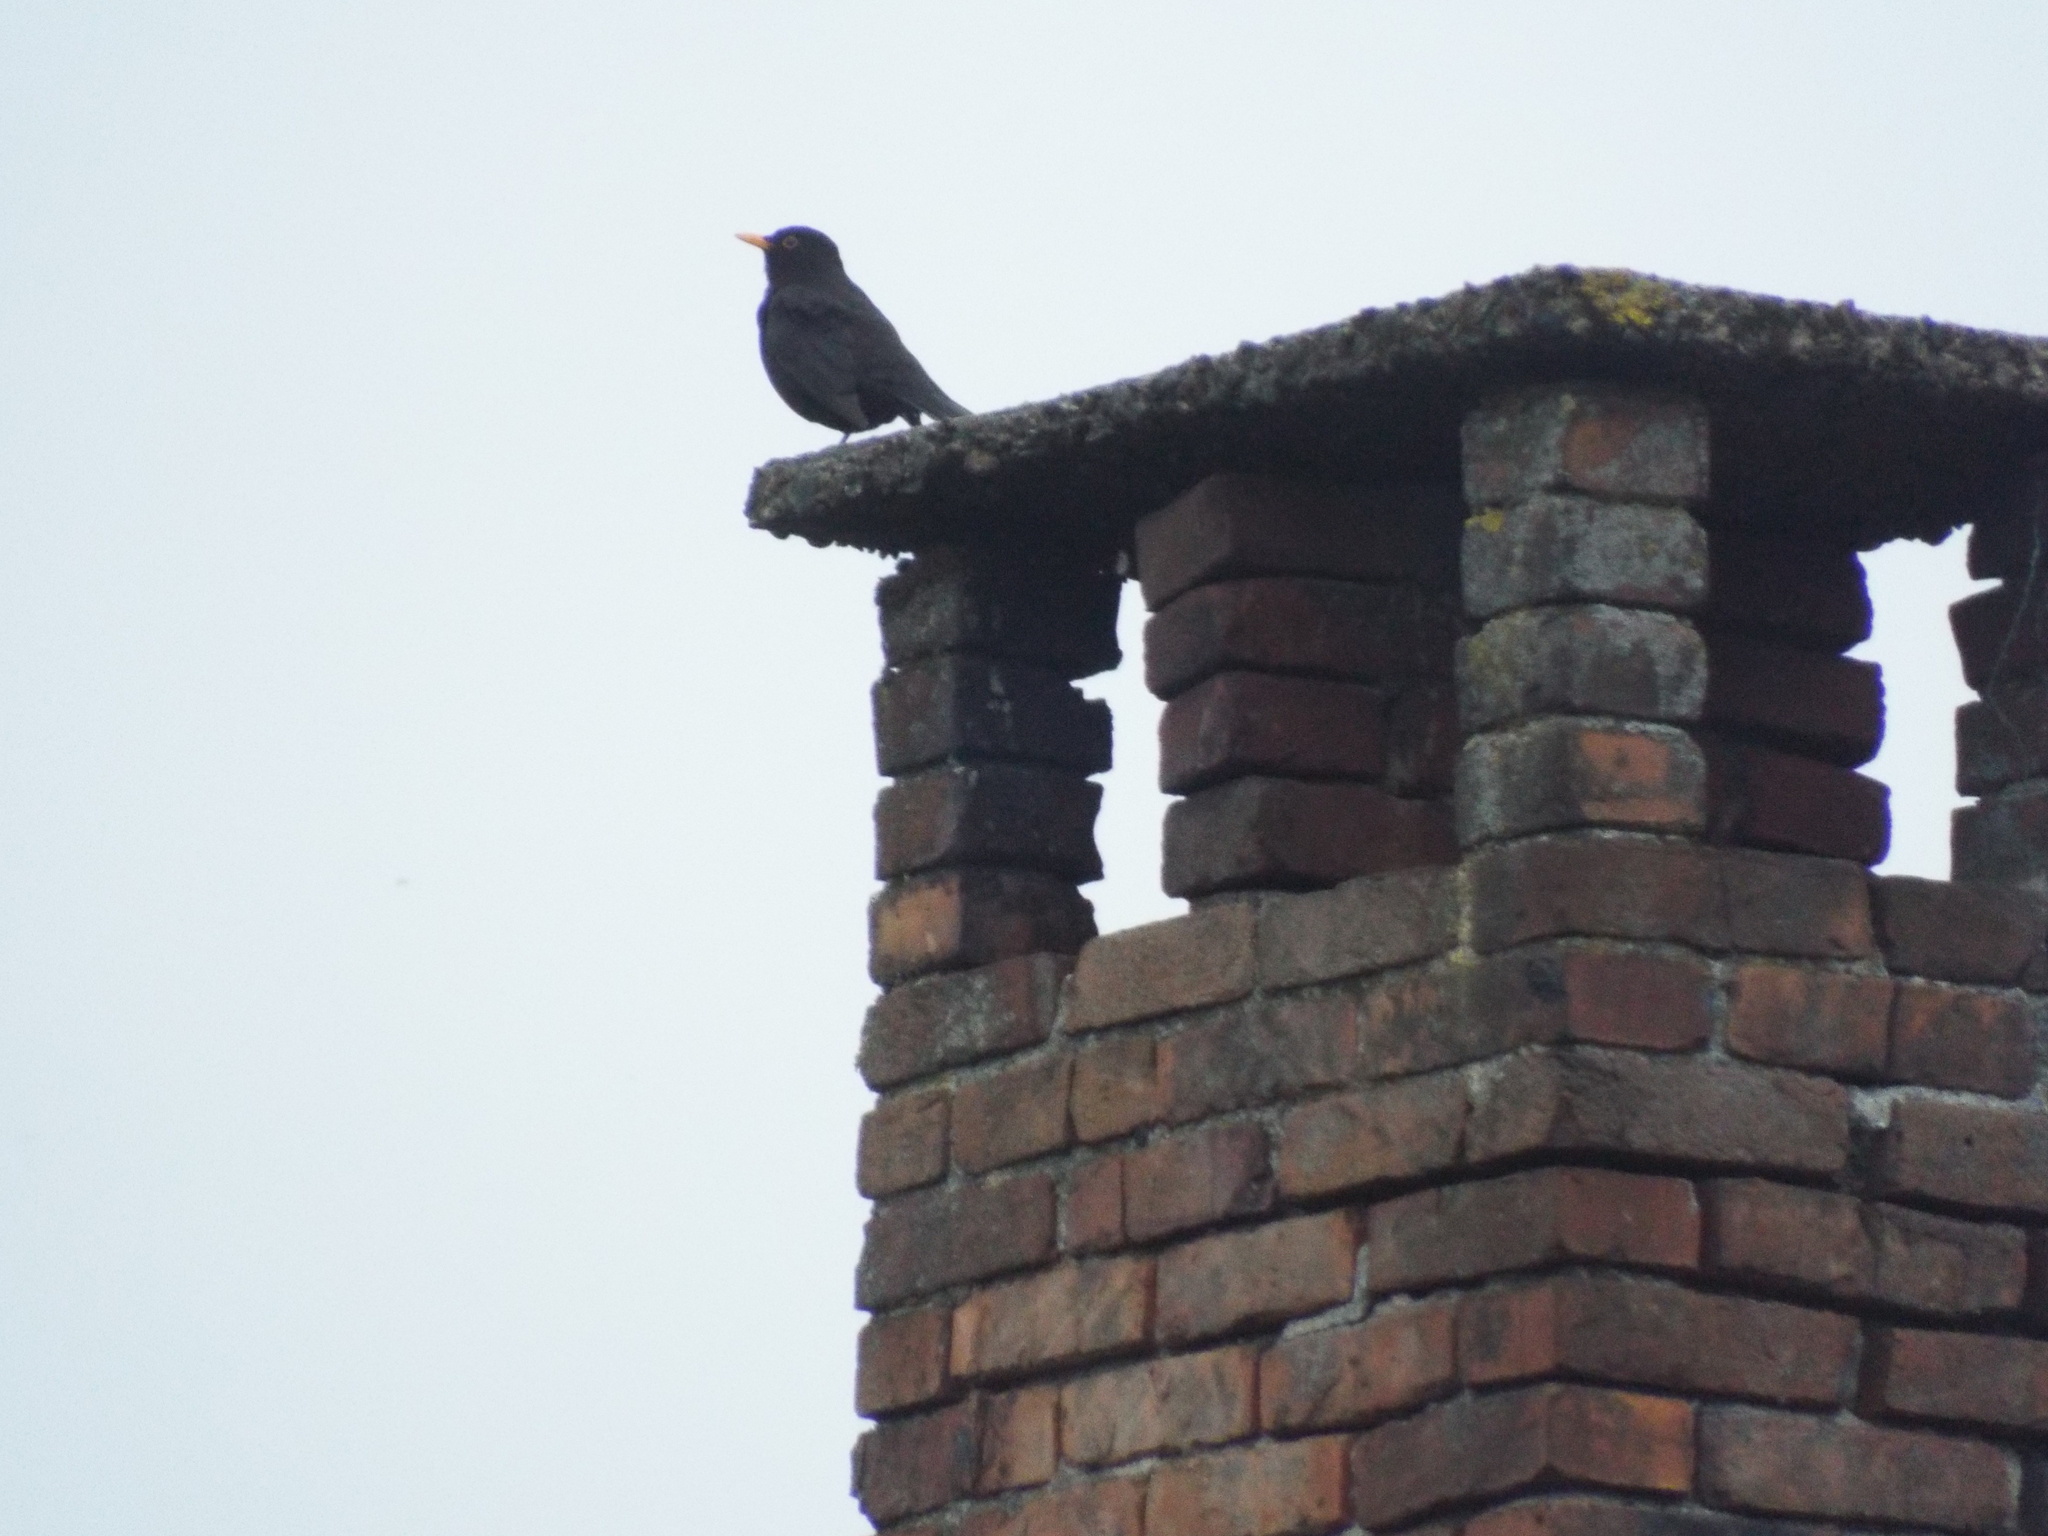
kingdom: Animalia
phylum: Chordata
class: Aves
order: Passeriformes
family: Turdidae
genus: Turdus
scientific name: Turdus merula
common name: Common blackbird
